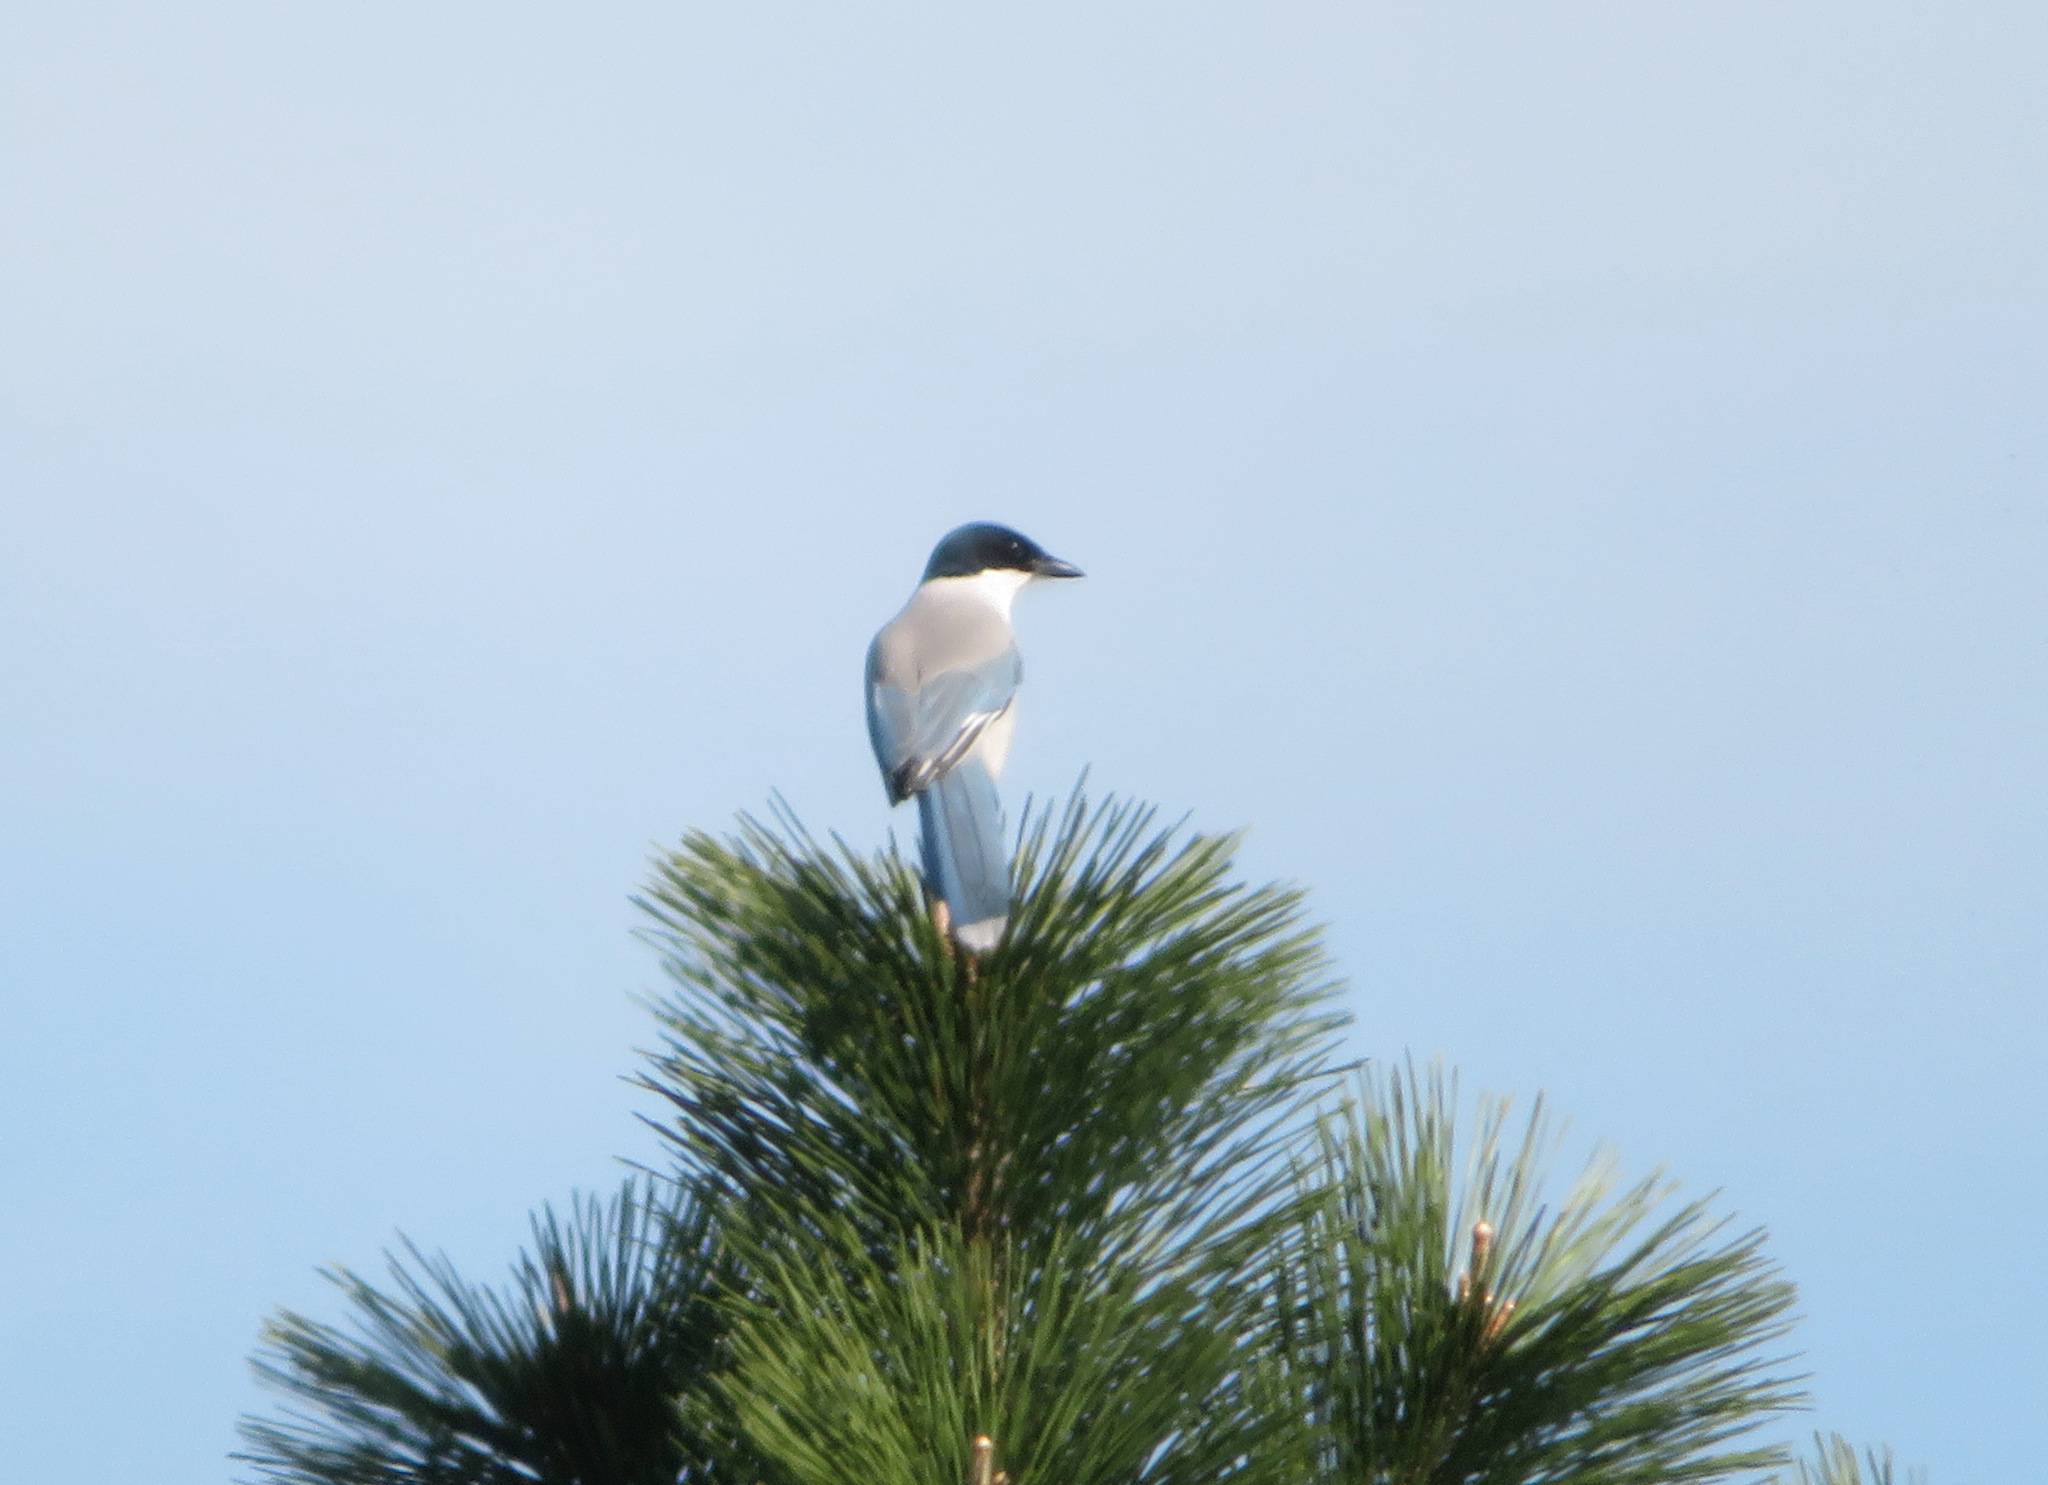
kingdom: Animalia
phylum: Chordata
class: Aves
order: Passeriformes
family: Corvidae
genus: Cyanopica
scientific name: Cyanopica cyanus
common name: Azure-winged magpie
